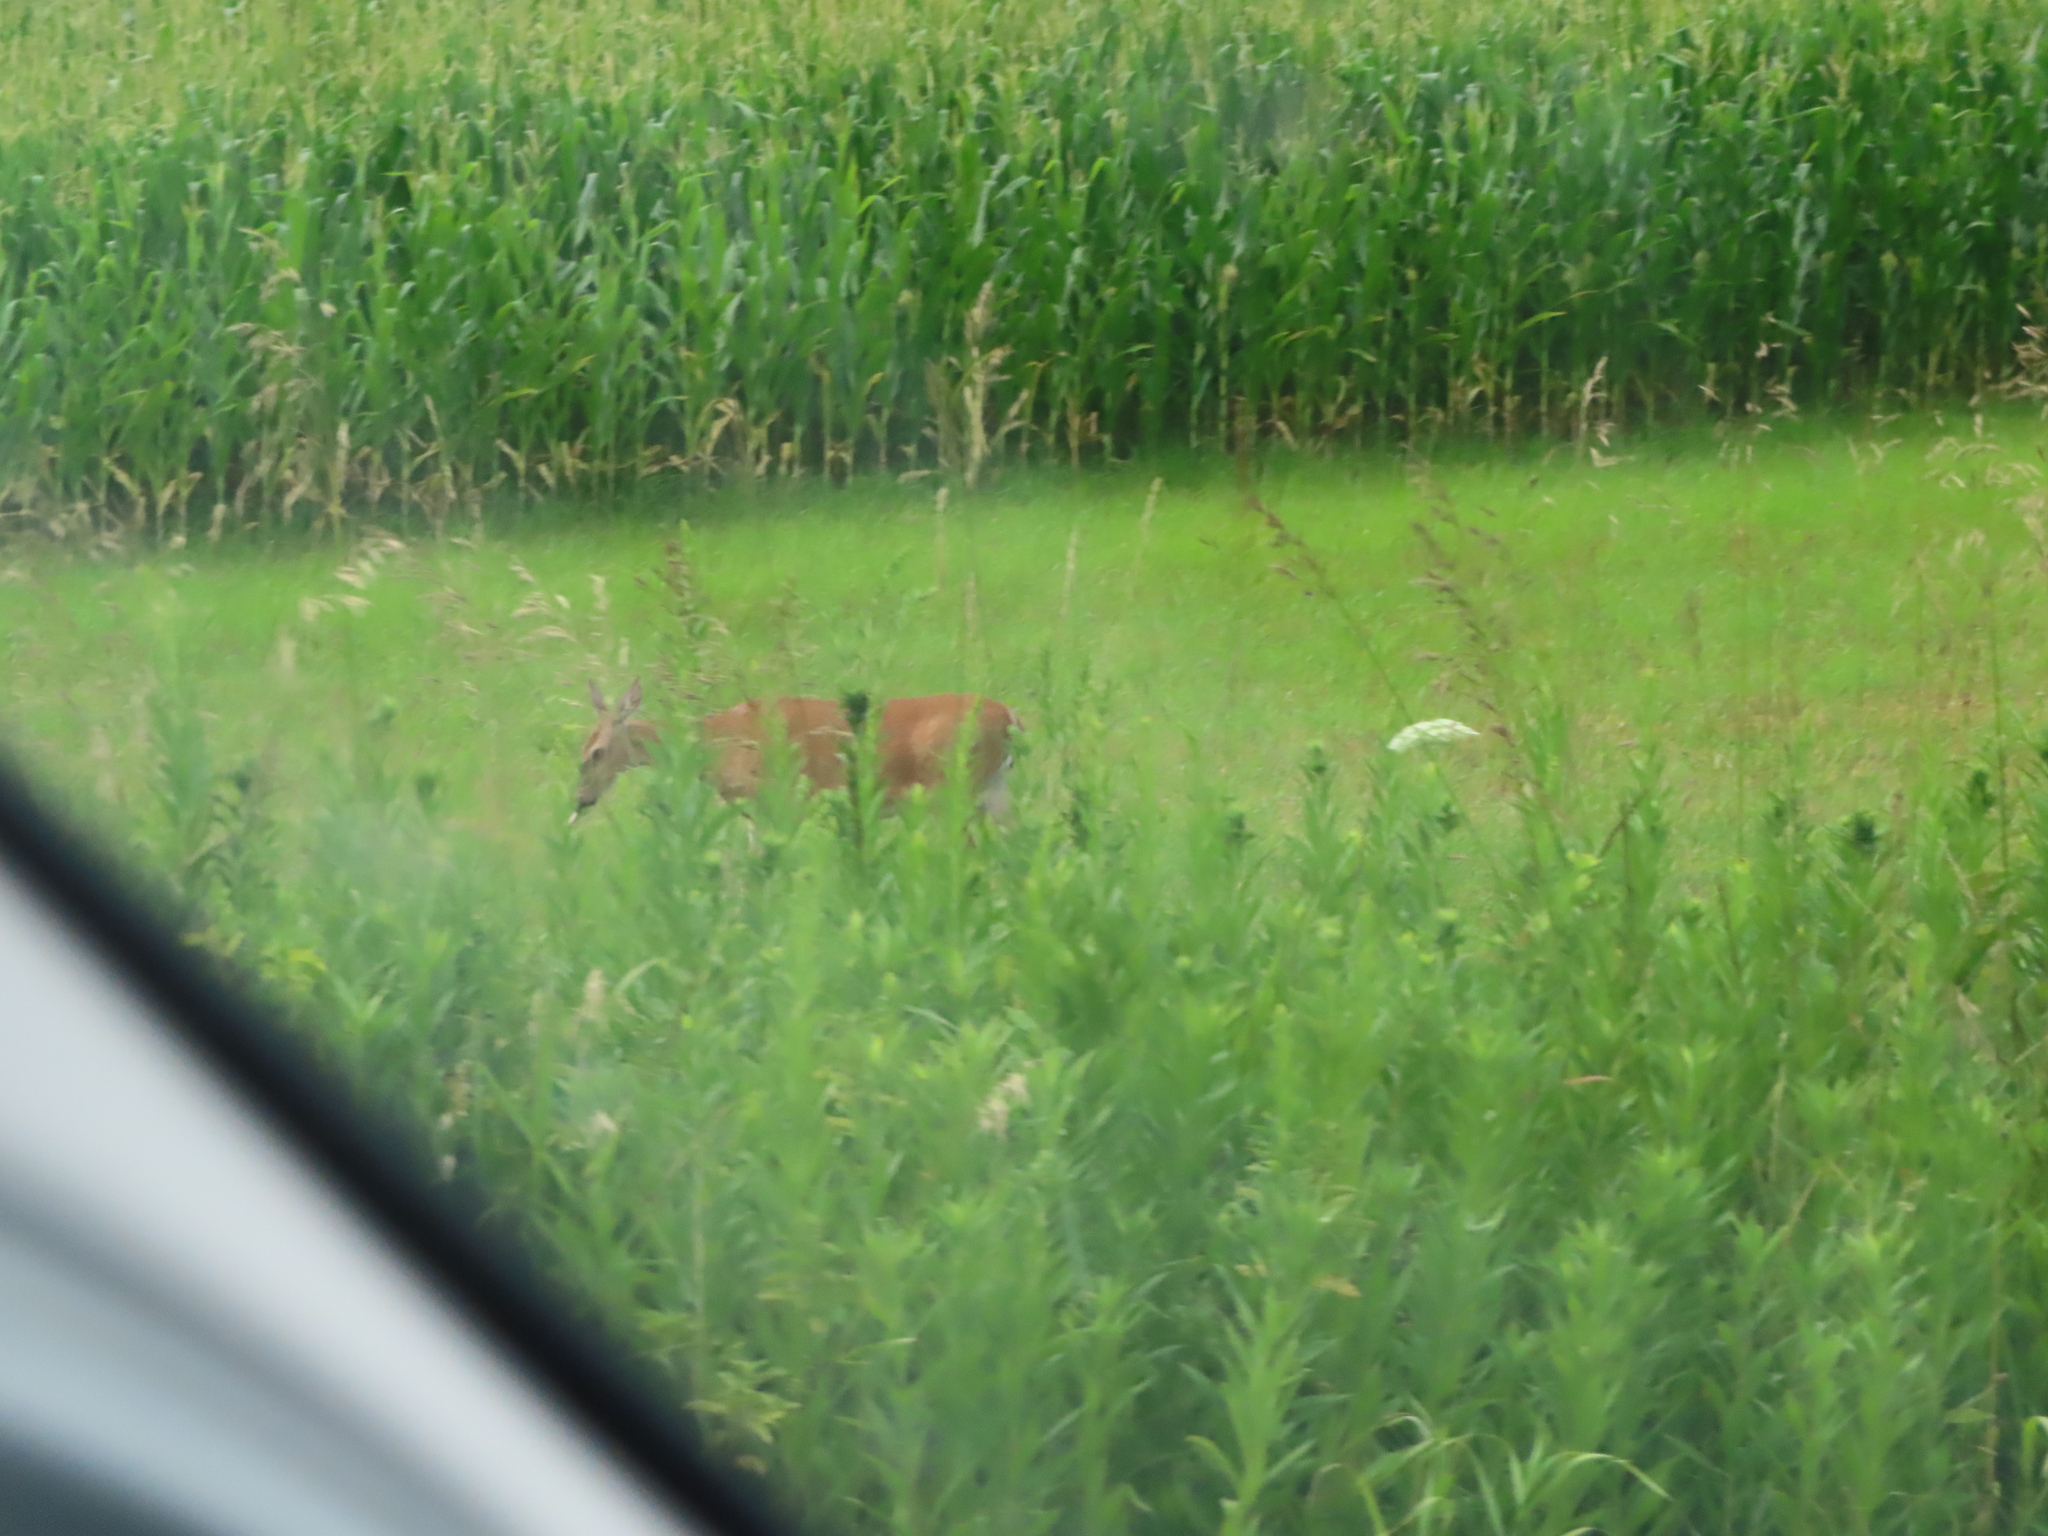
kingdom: Animalia
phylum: Chordata
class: Mammalia
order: Artiodactyla
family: Cervidae
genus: Odocoileus
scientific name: Odocoileus virginianus
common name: White-tailed deer
